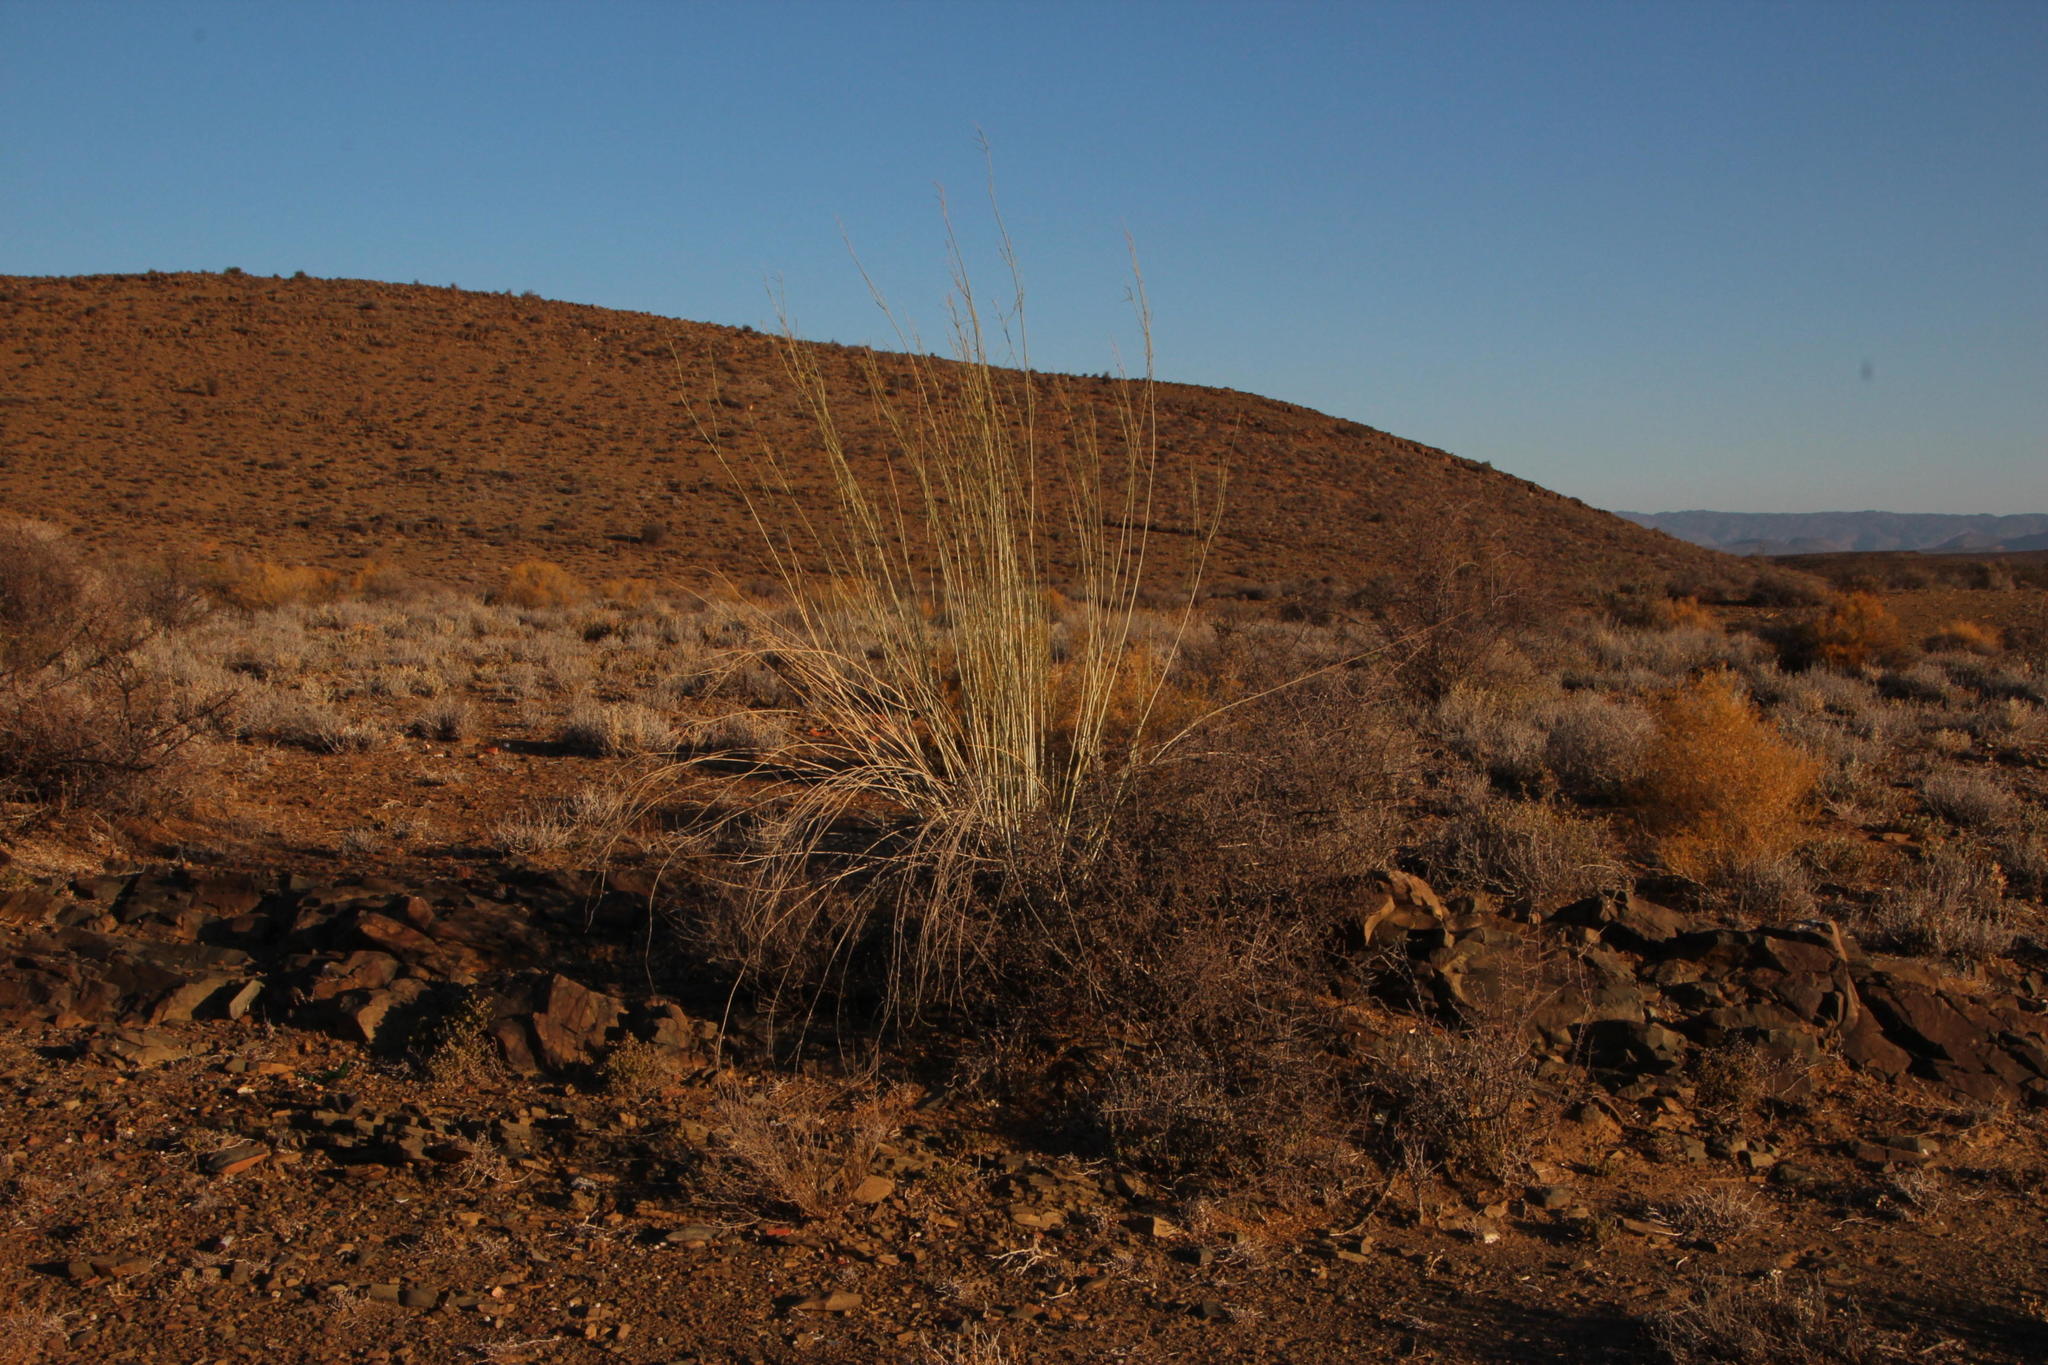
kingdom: Plantae
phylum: Tracheophyta
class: Magnoliopsida
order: Gentianales
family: Apocynaceae
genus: Gomphocarpus
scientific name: Gomphocarpus filiformis
